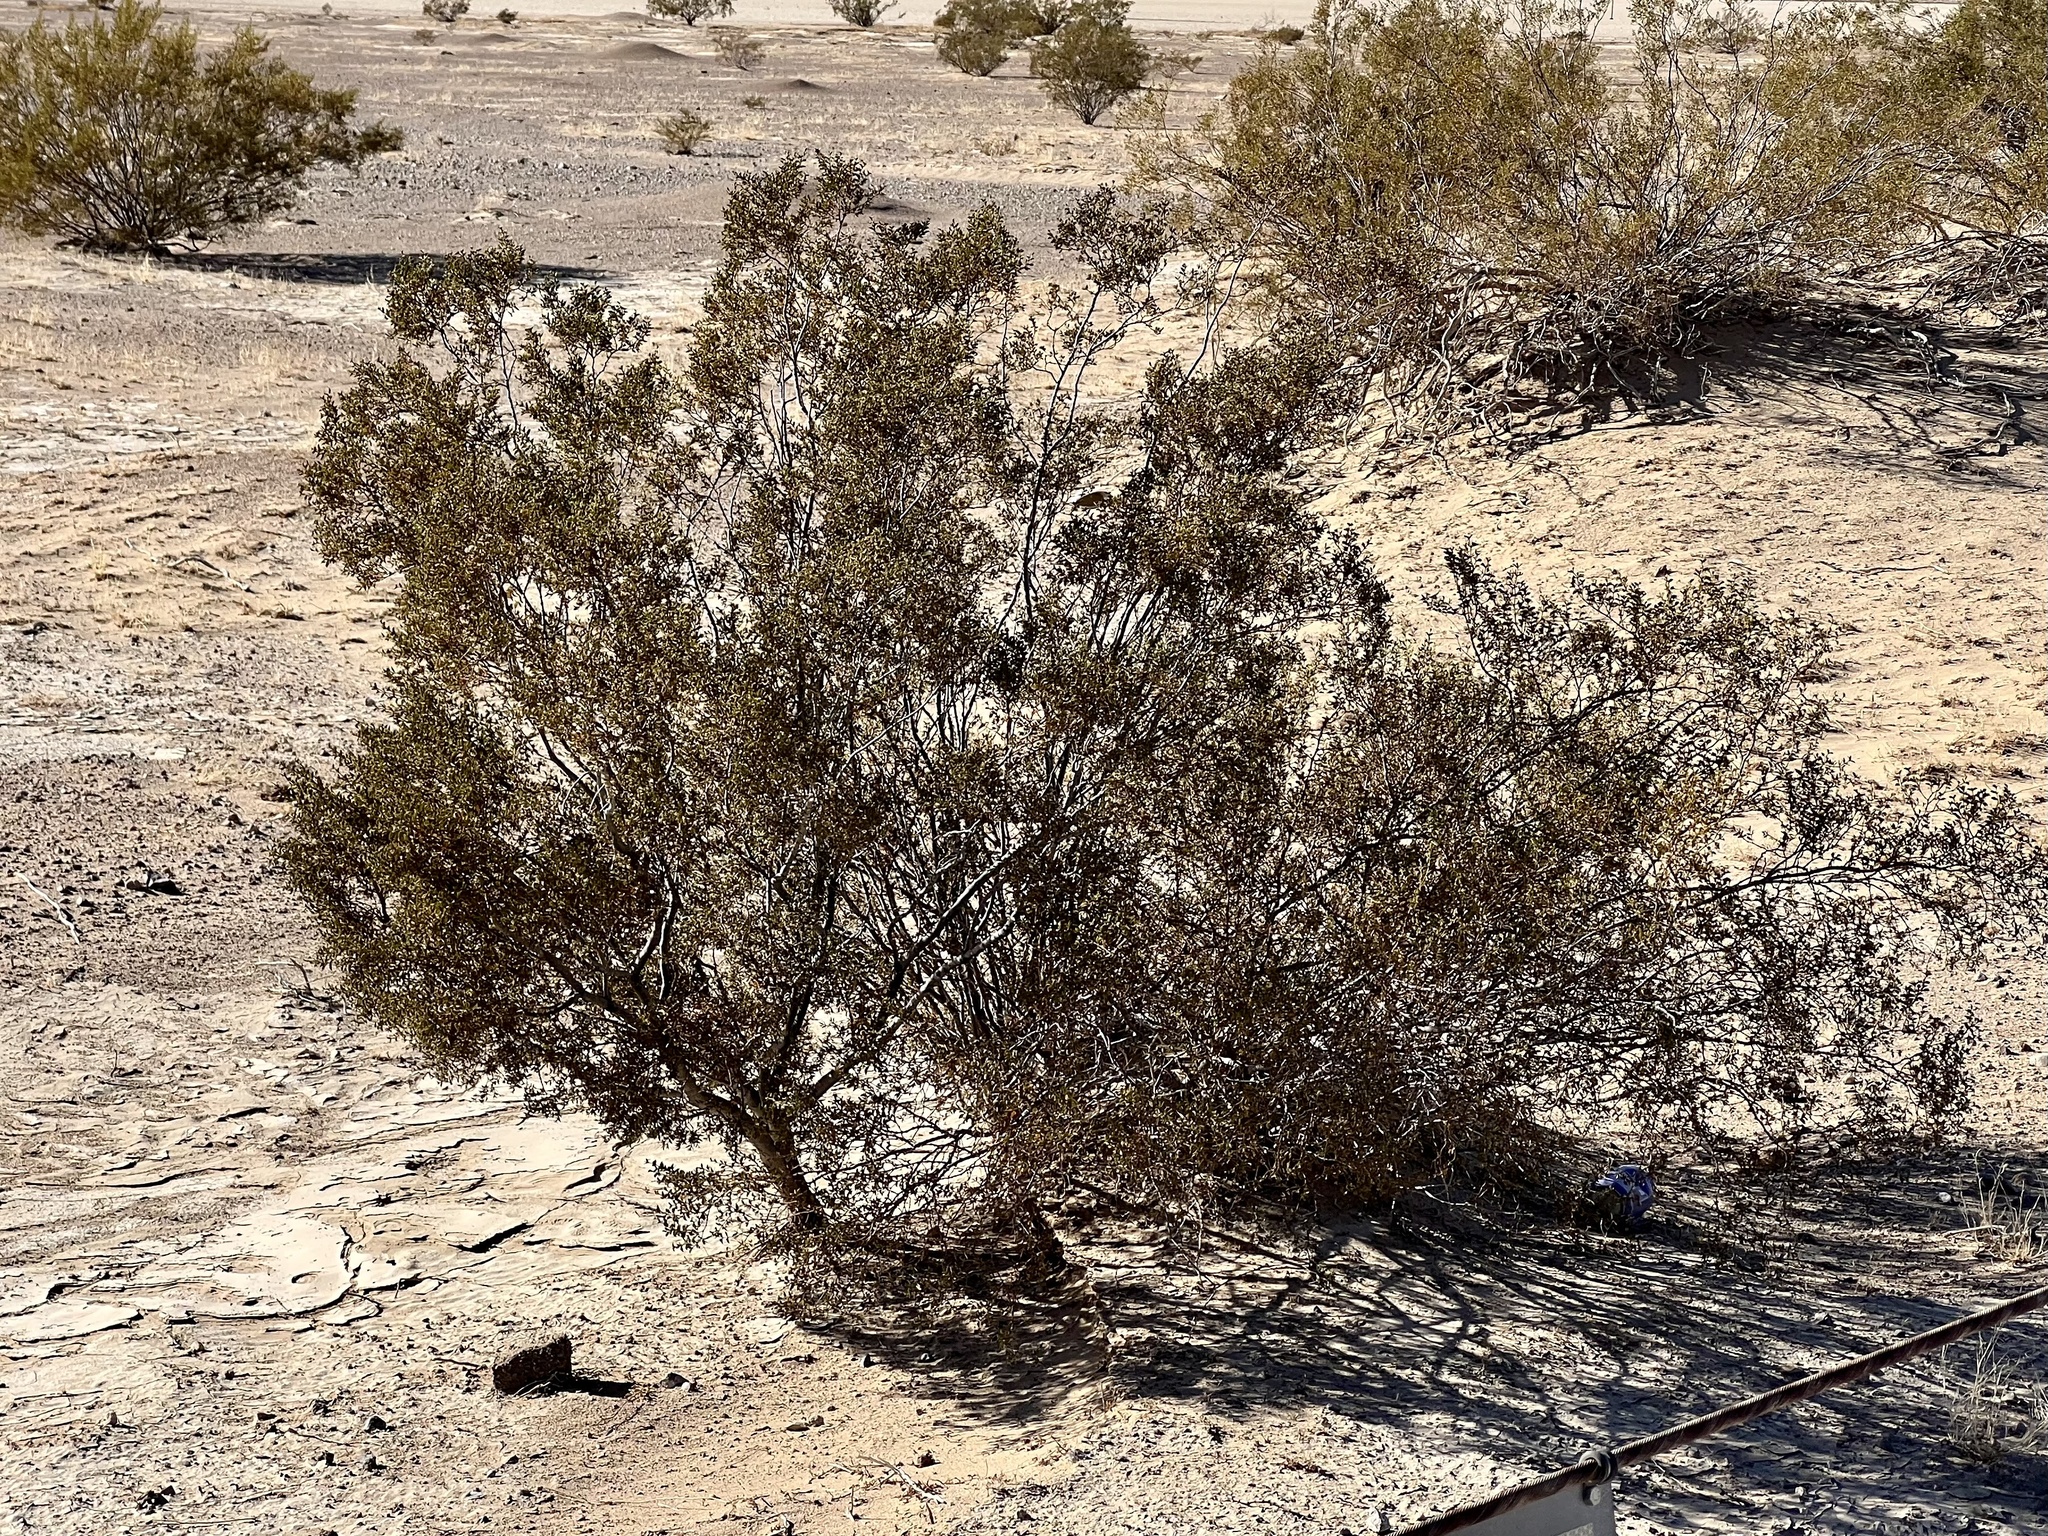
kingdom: Plantae
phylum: Tracheophyta
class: Magnoliopsida
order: Zygophyllales
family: Zygophyllaceae
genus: Larrea
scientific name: Larrea tridentata
